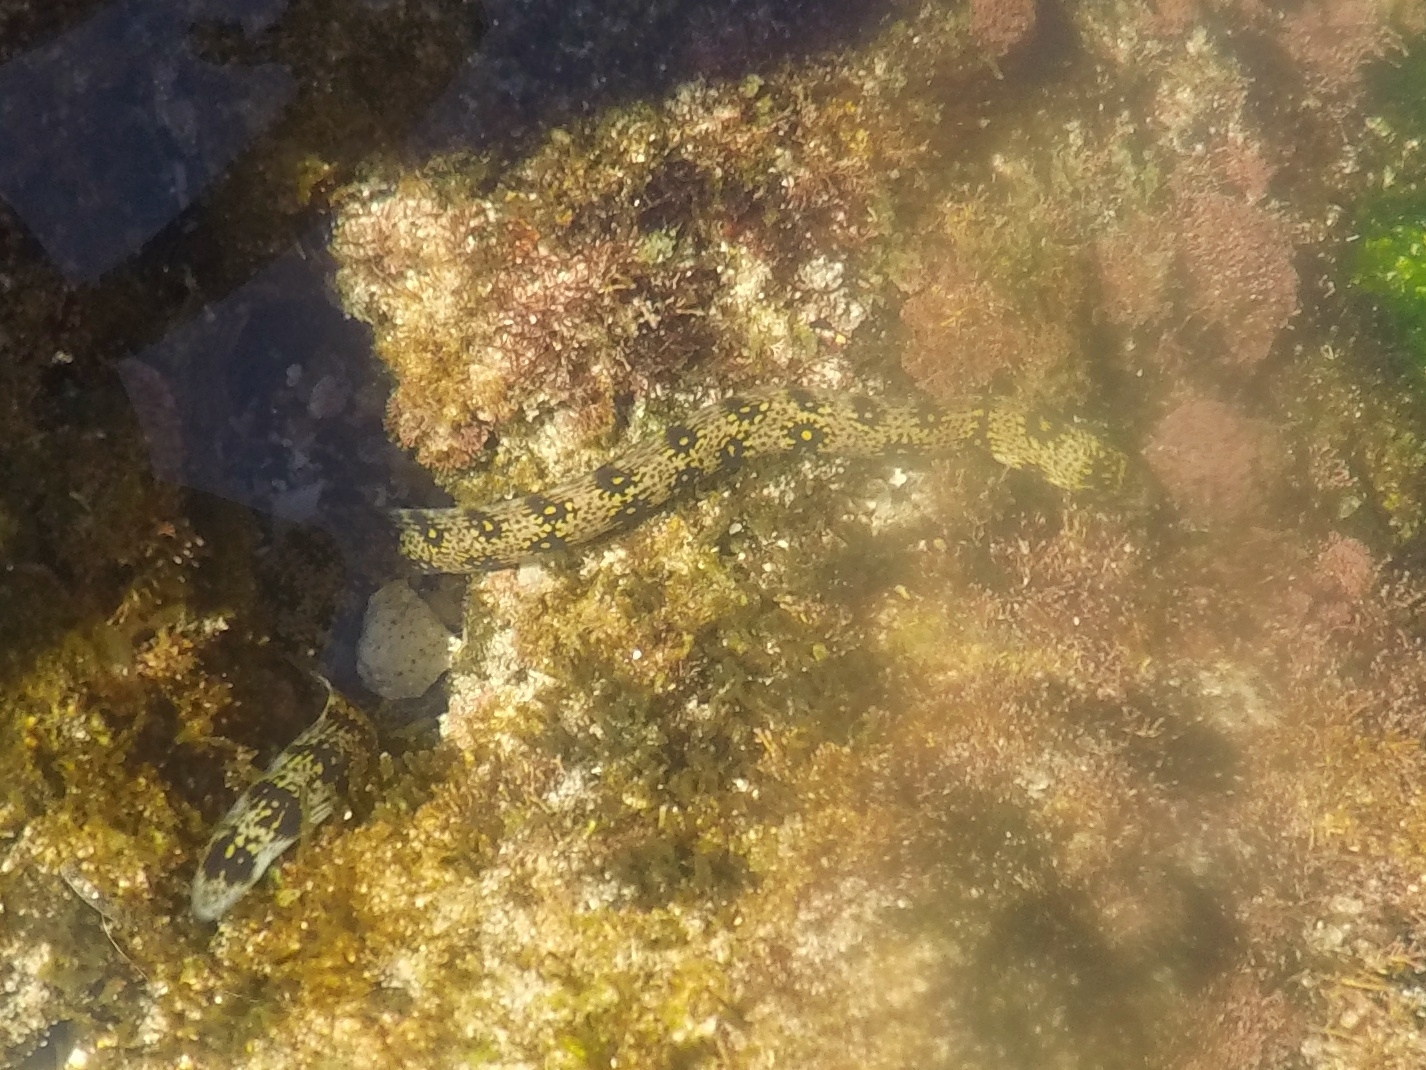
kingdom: Animalia
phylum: Chordata
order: Anguilliformes
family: Muraenidae
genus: Echidna
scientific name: Echidna nebulosa
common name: Snowflake moray
